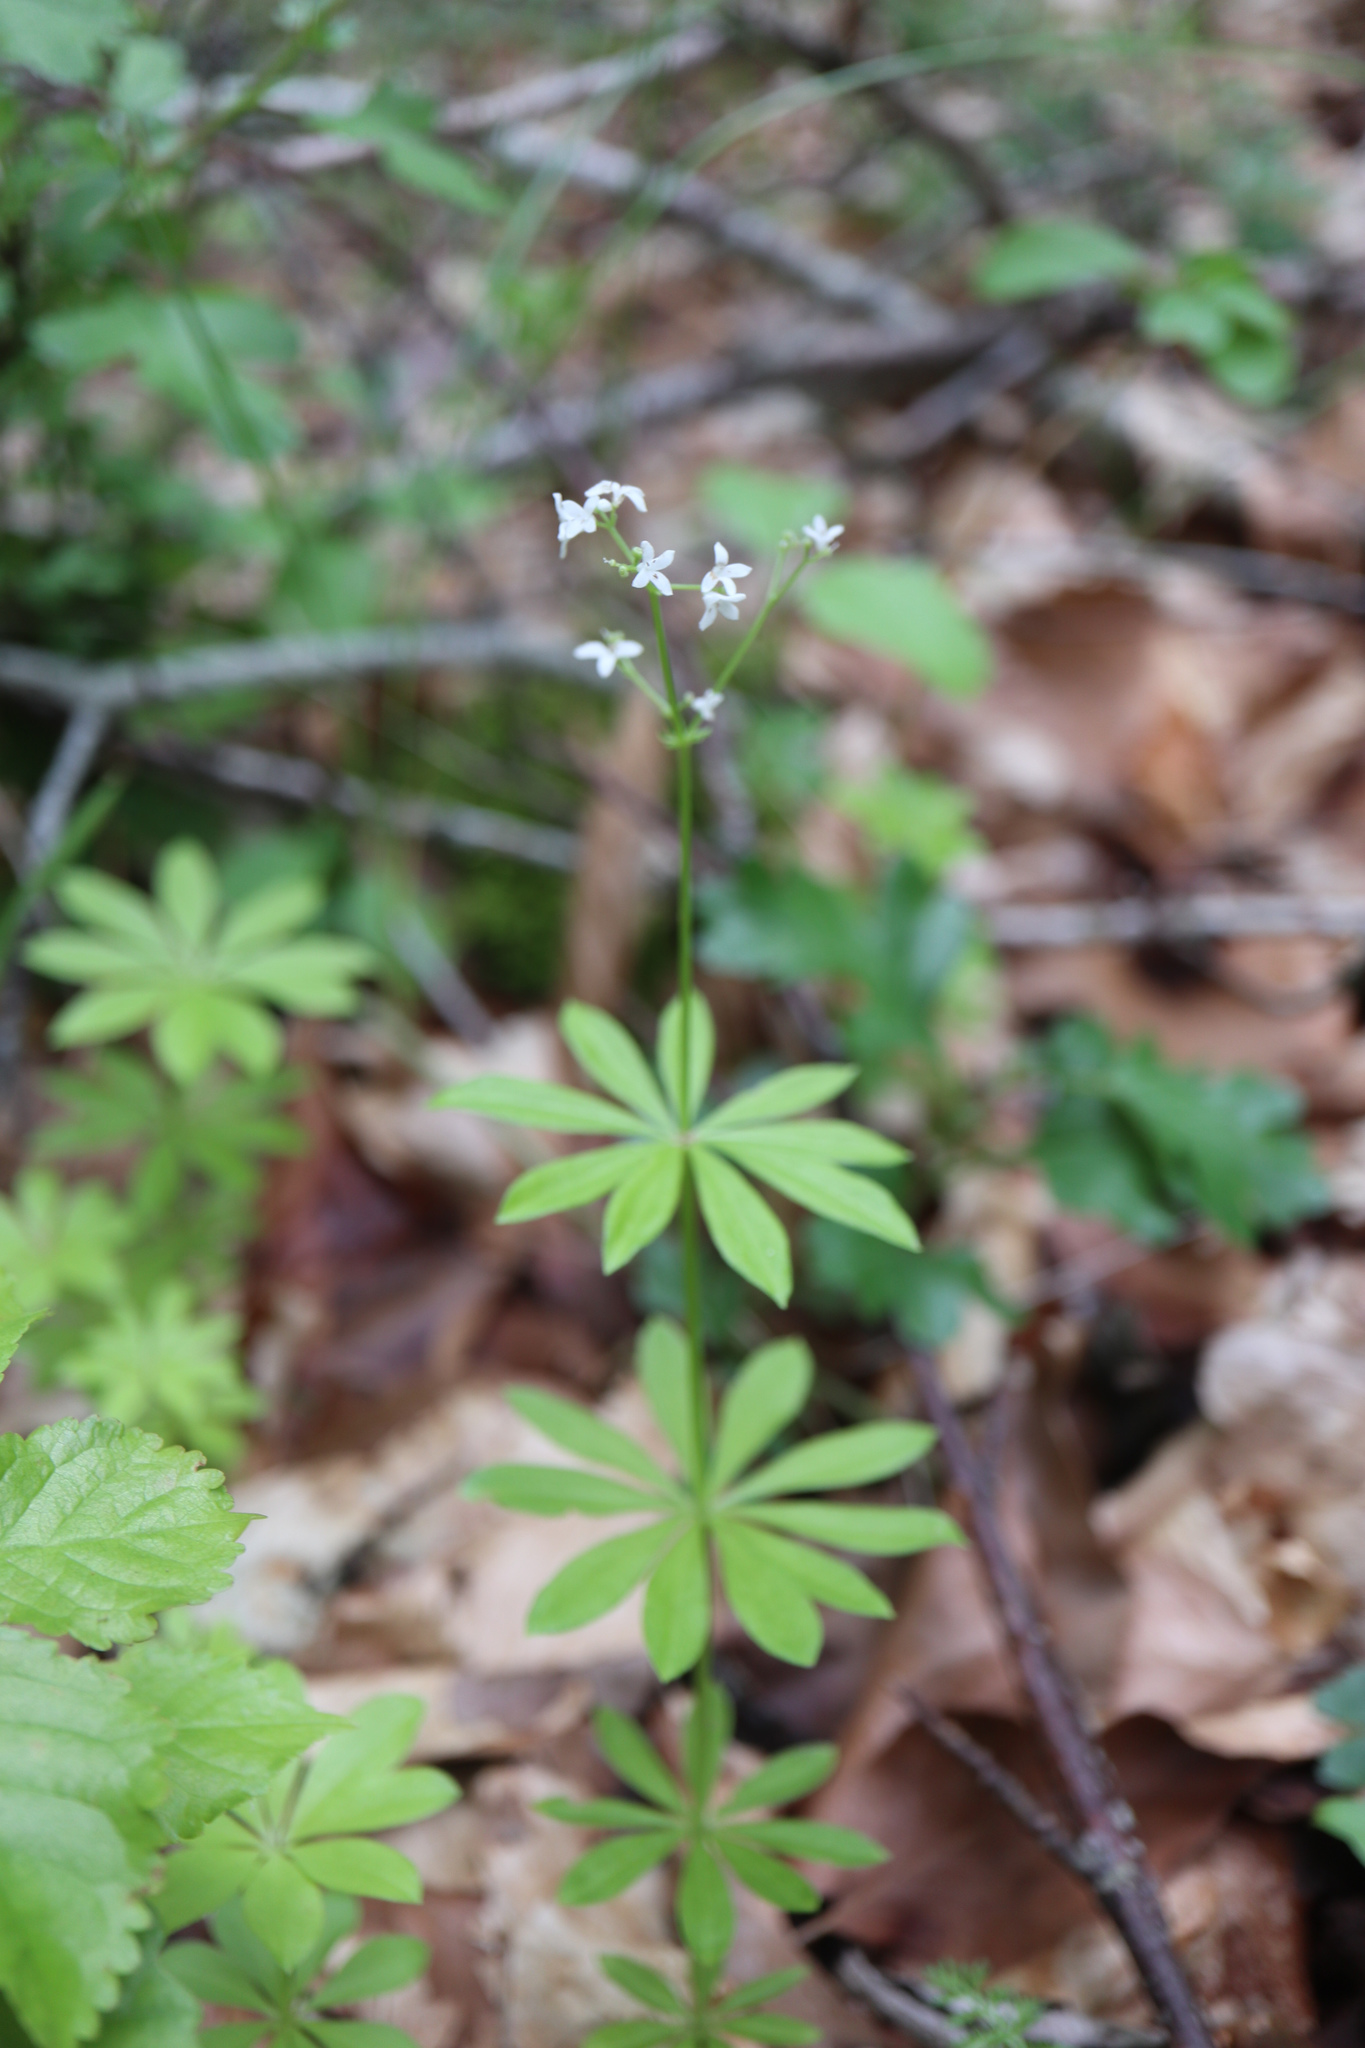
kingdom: Plantae
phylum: Tracheophyta
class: Magnoliopsida
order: Gentianales
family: Rubiaceae
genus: Galium
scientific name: Galium odoratum
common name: Sweet woodruff
